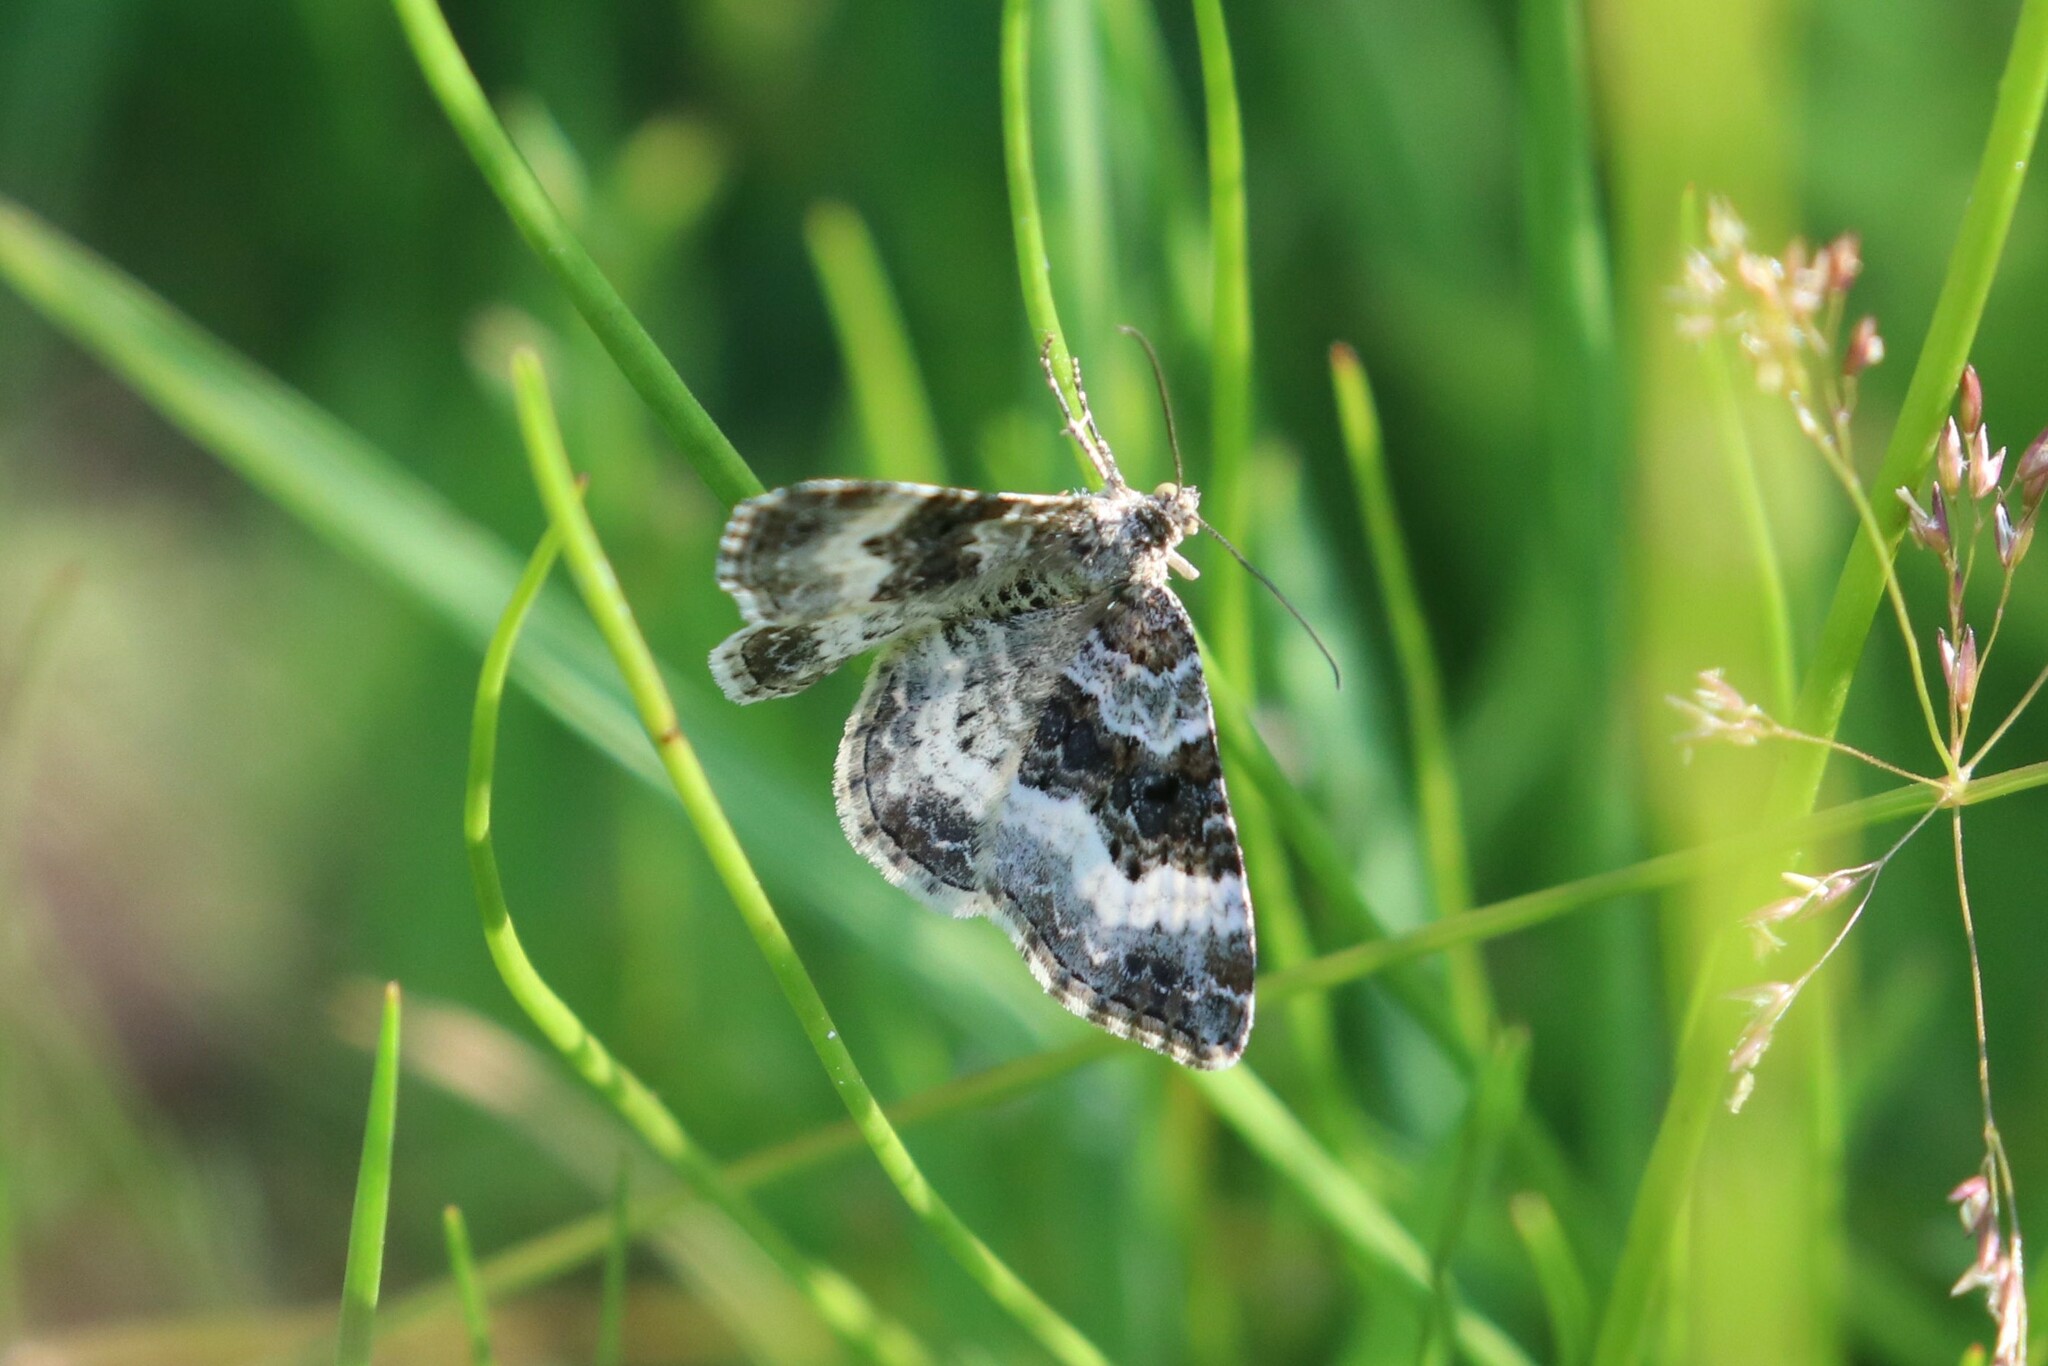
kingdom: Animalia
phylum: Arthropoda
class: Insecta
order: Lepidoptera
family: Geometridae
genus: Epirrhoe
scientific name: Epirrhoe alternata
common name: Common carpet
